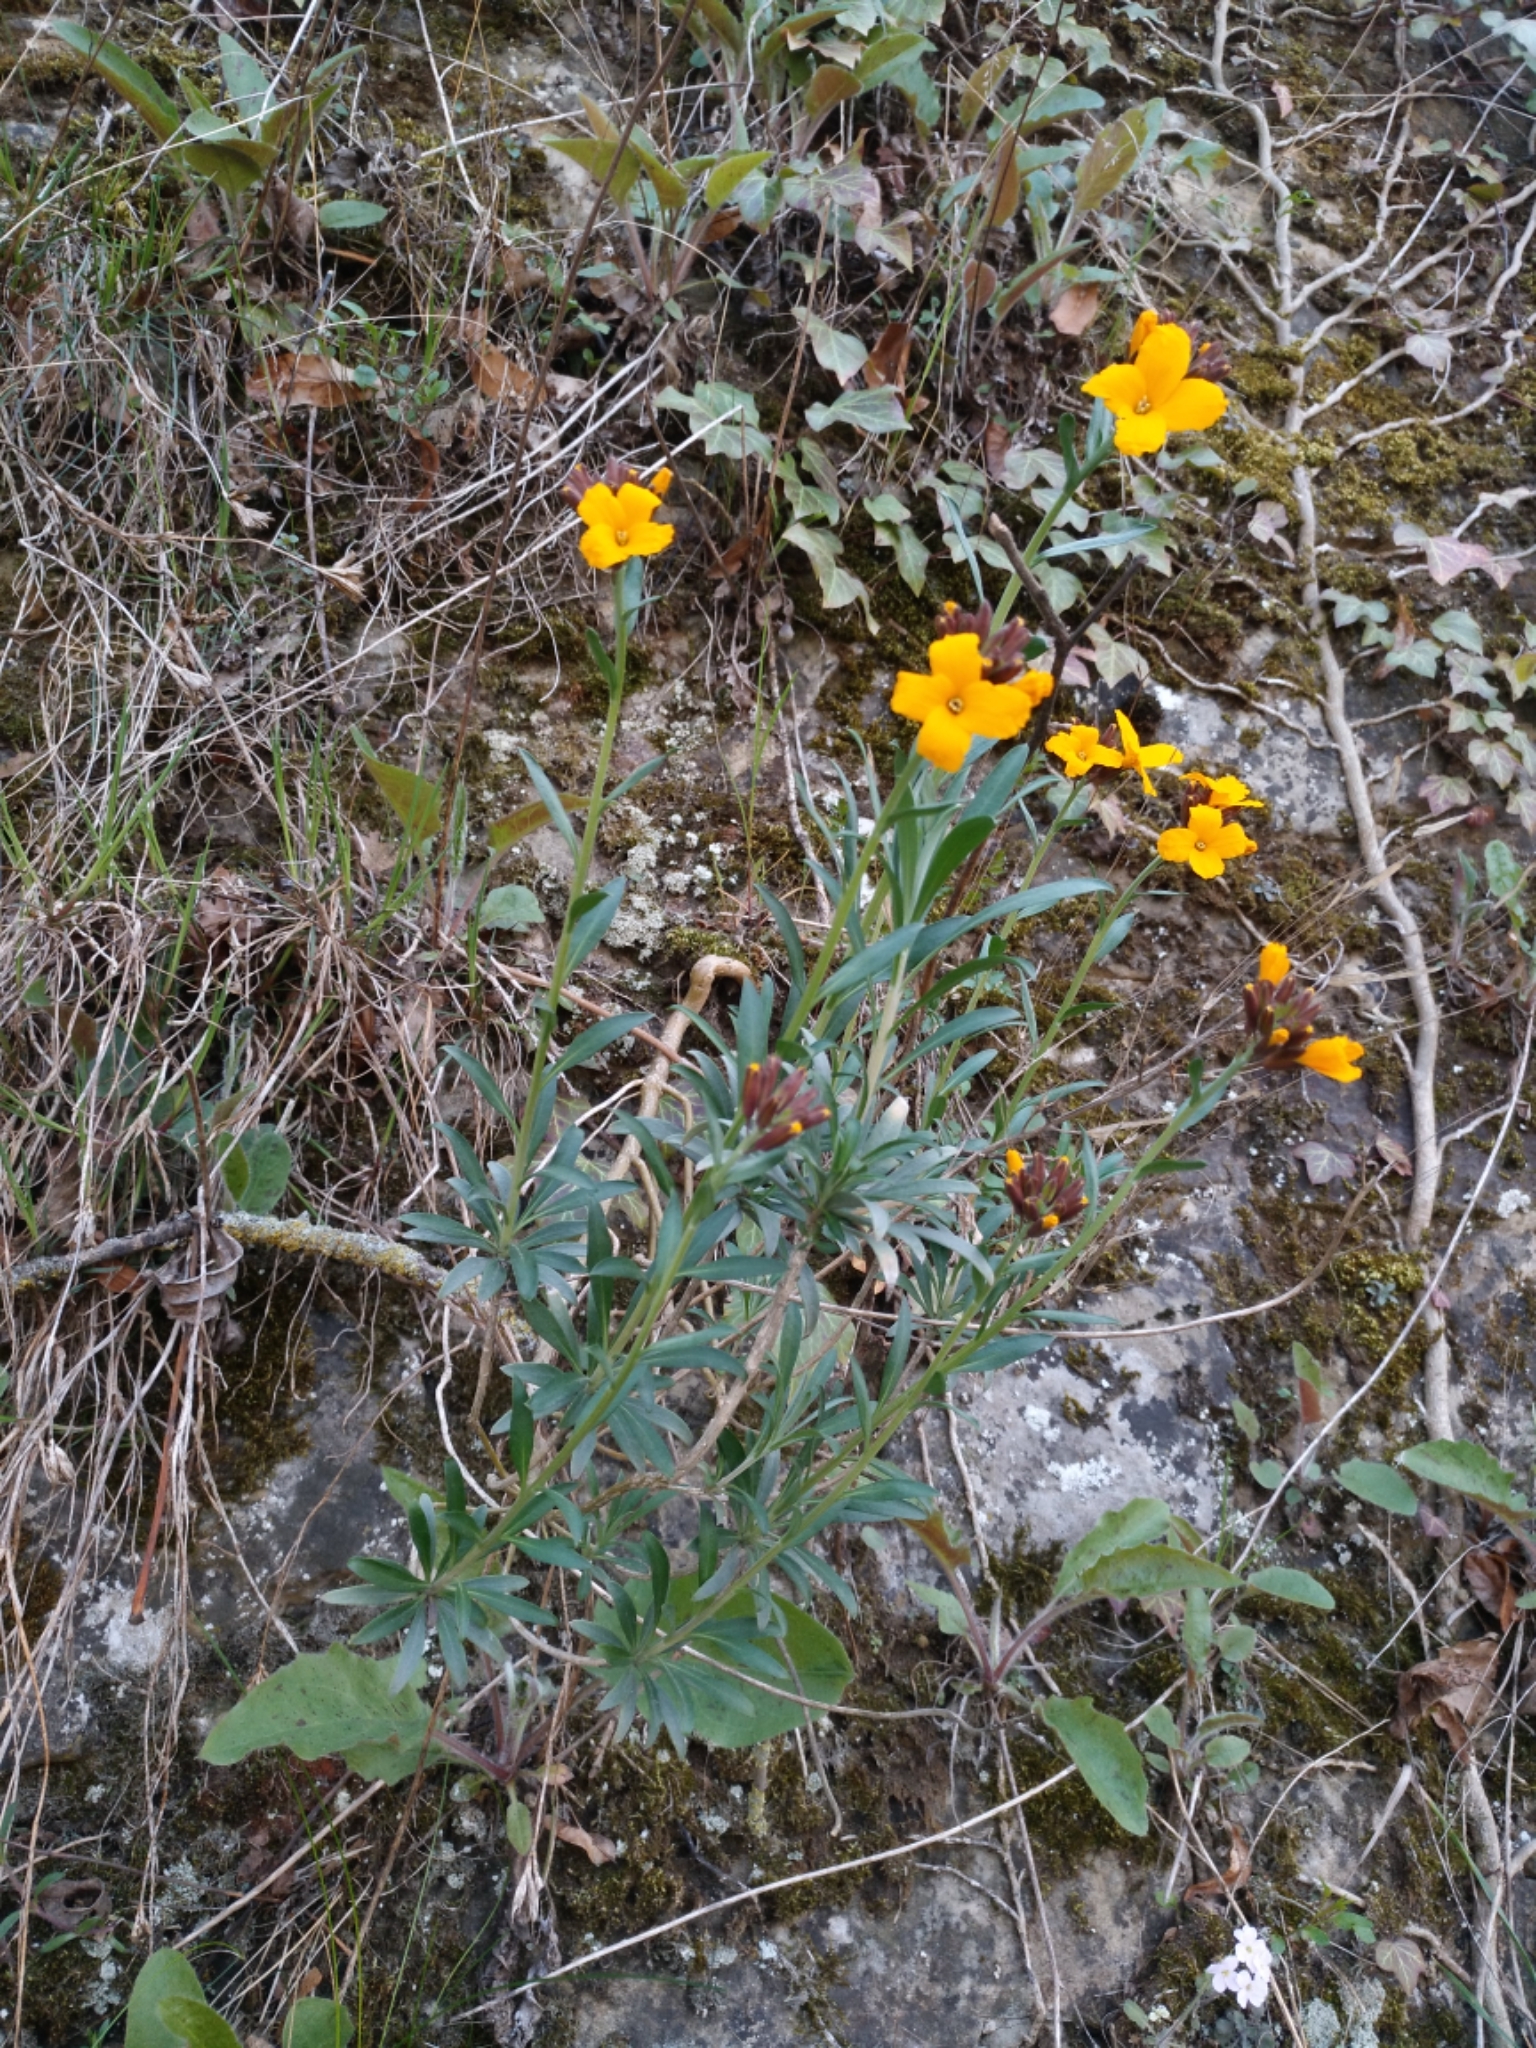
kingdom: Plantae
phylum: Tracheophyta
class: Magnoliopsida
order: Brassicales
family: Brassicaceae
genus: Erysimum
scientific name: Erysimum cheiri
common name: Wallflower
